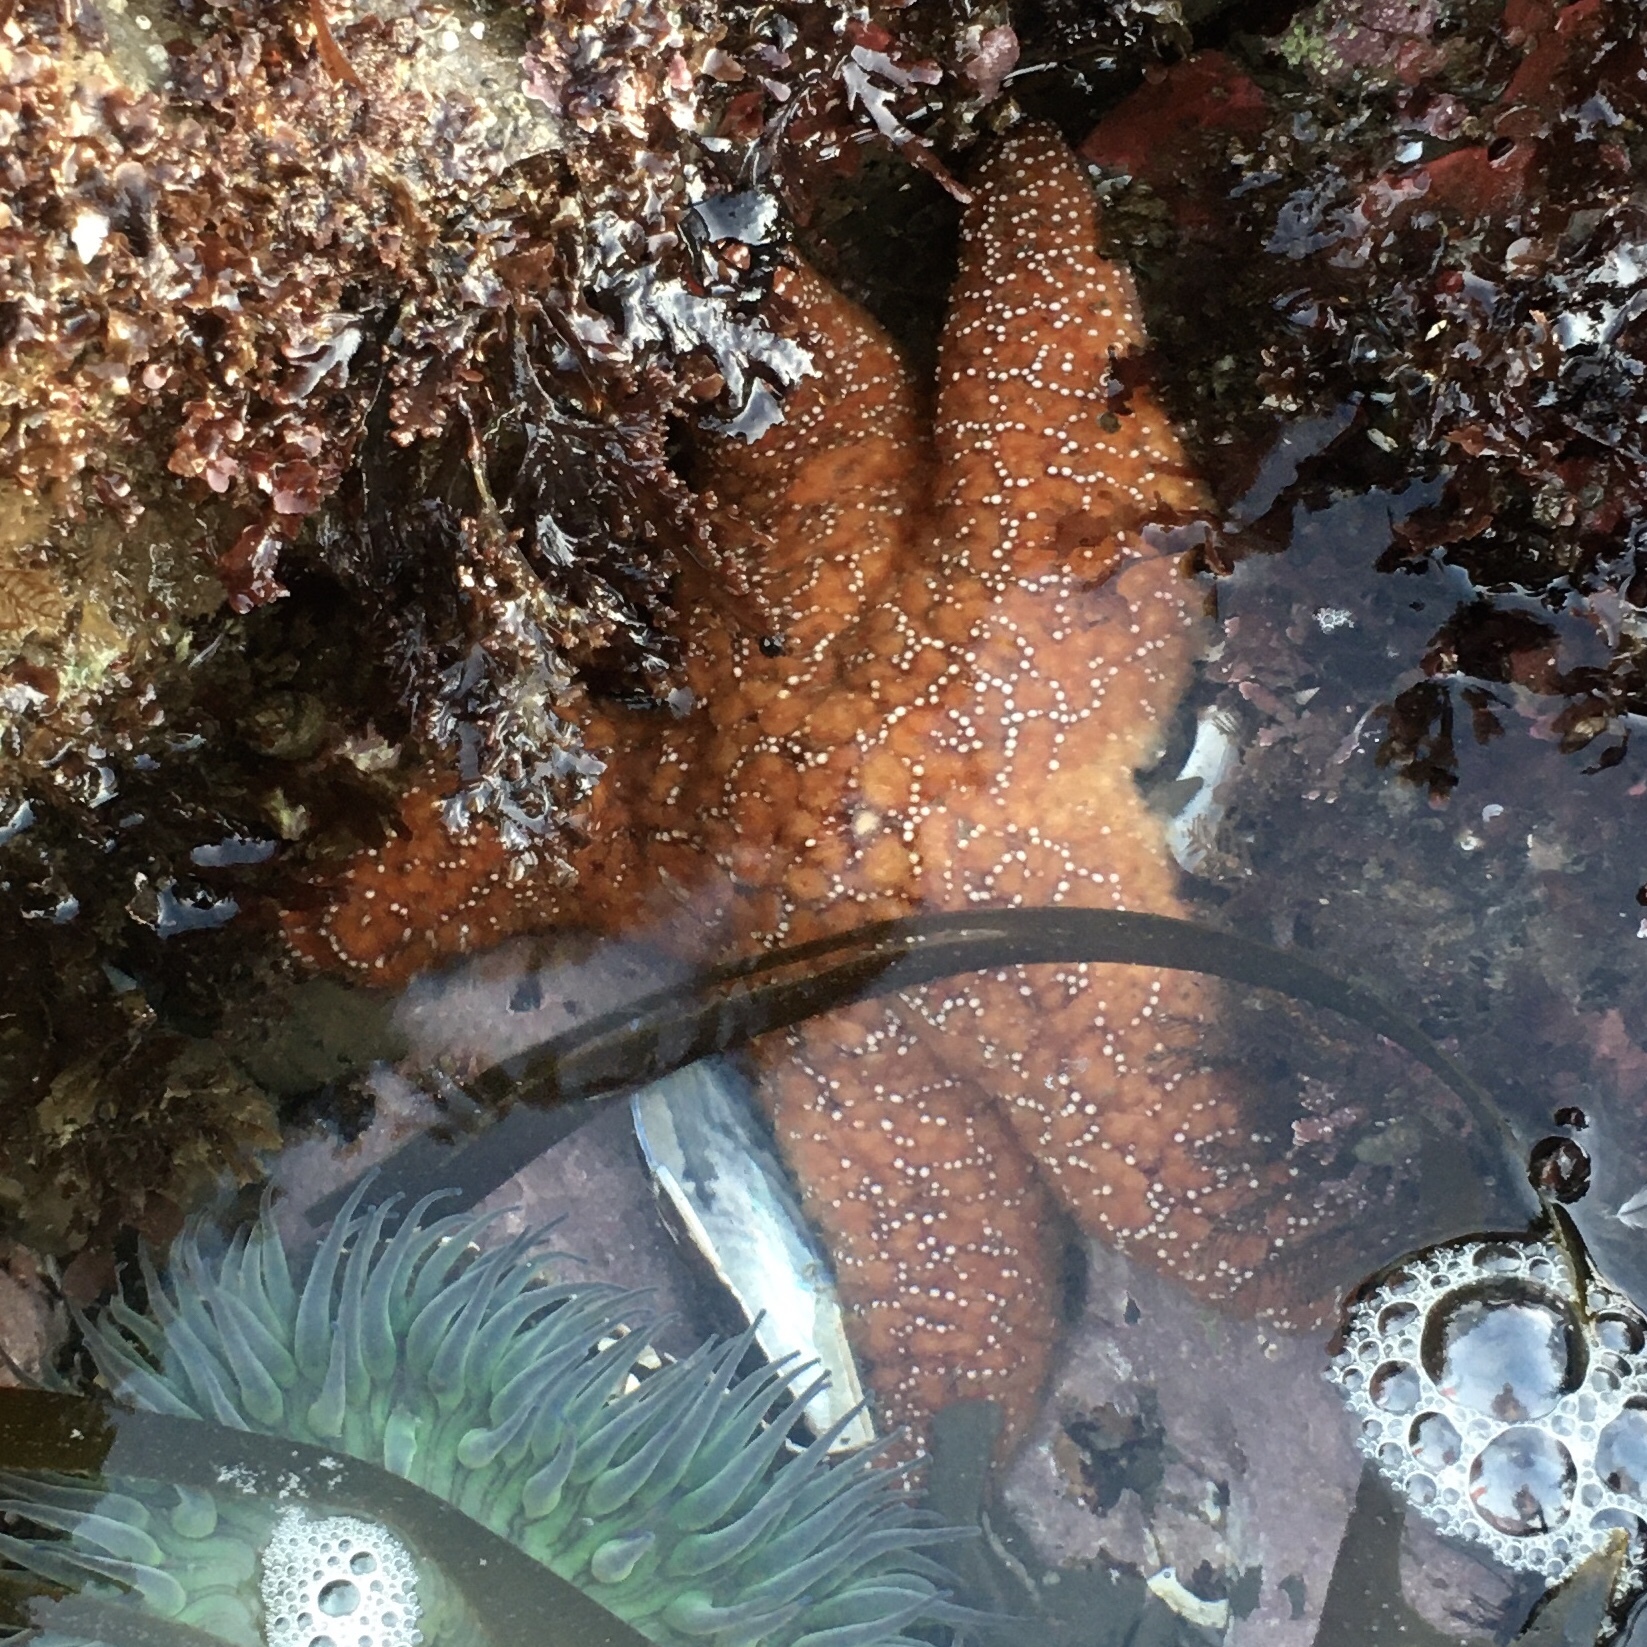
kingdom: Animalia
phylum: Echinodermata
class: Asteroidea
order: Forcipulatida
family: Asteriidae
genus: Pisaster
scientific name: Pisaster ochraceus
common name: Ochre stars
